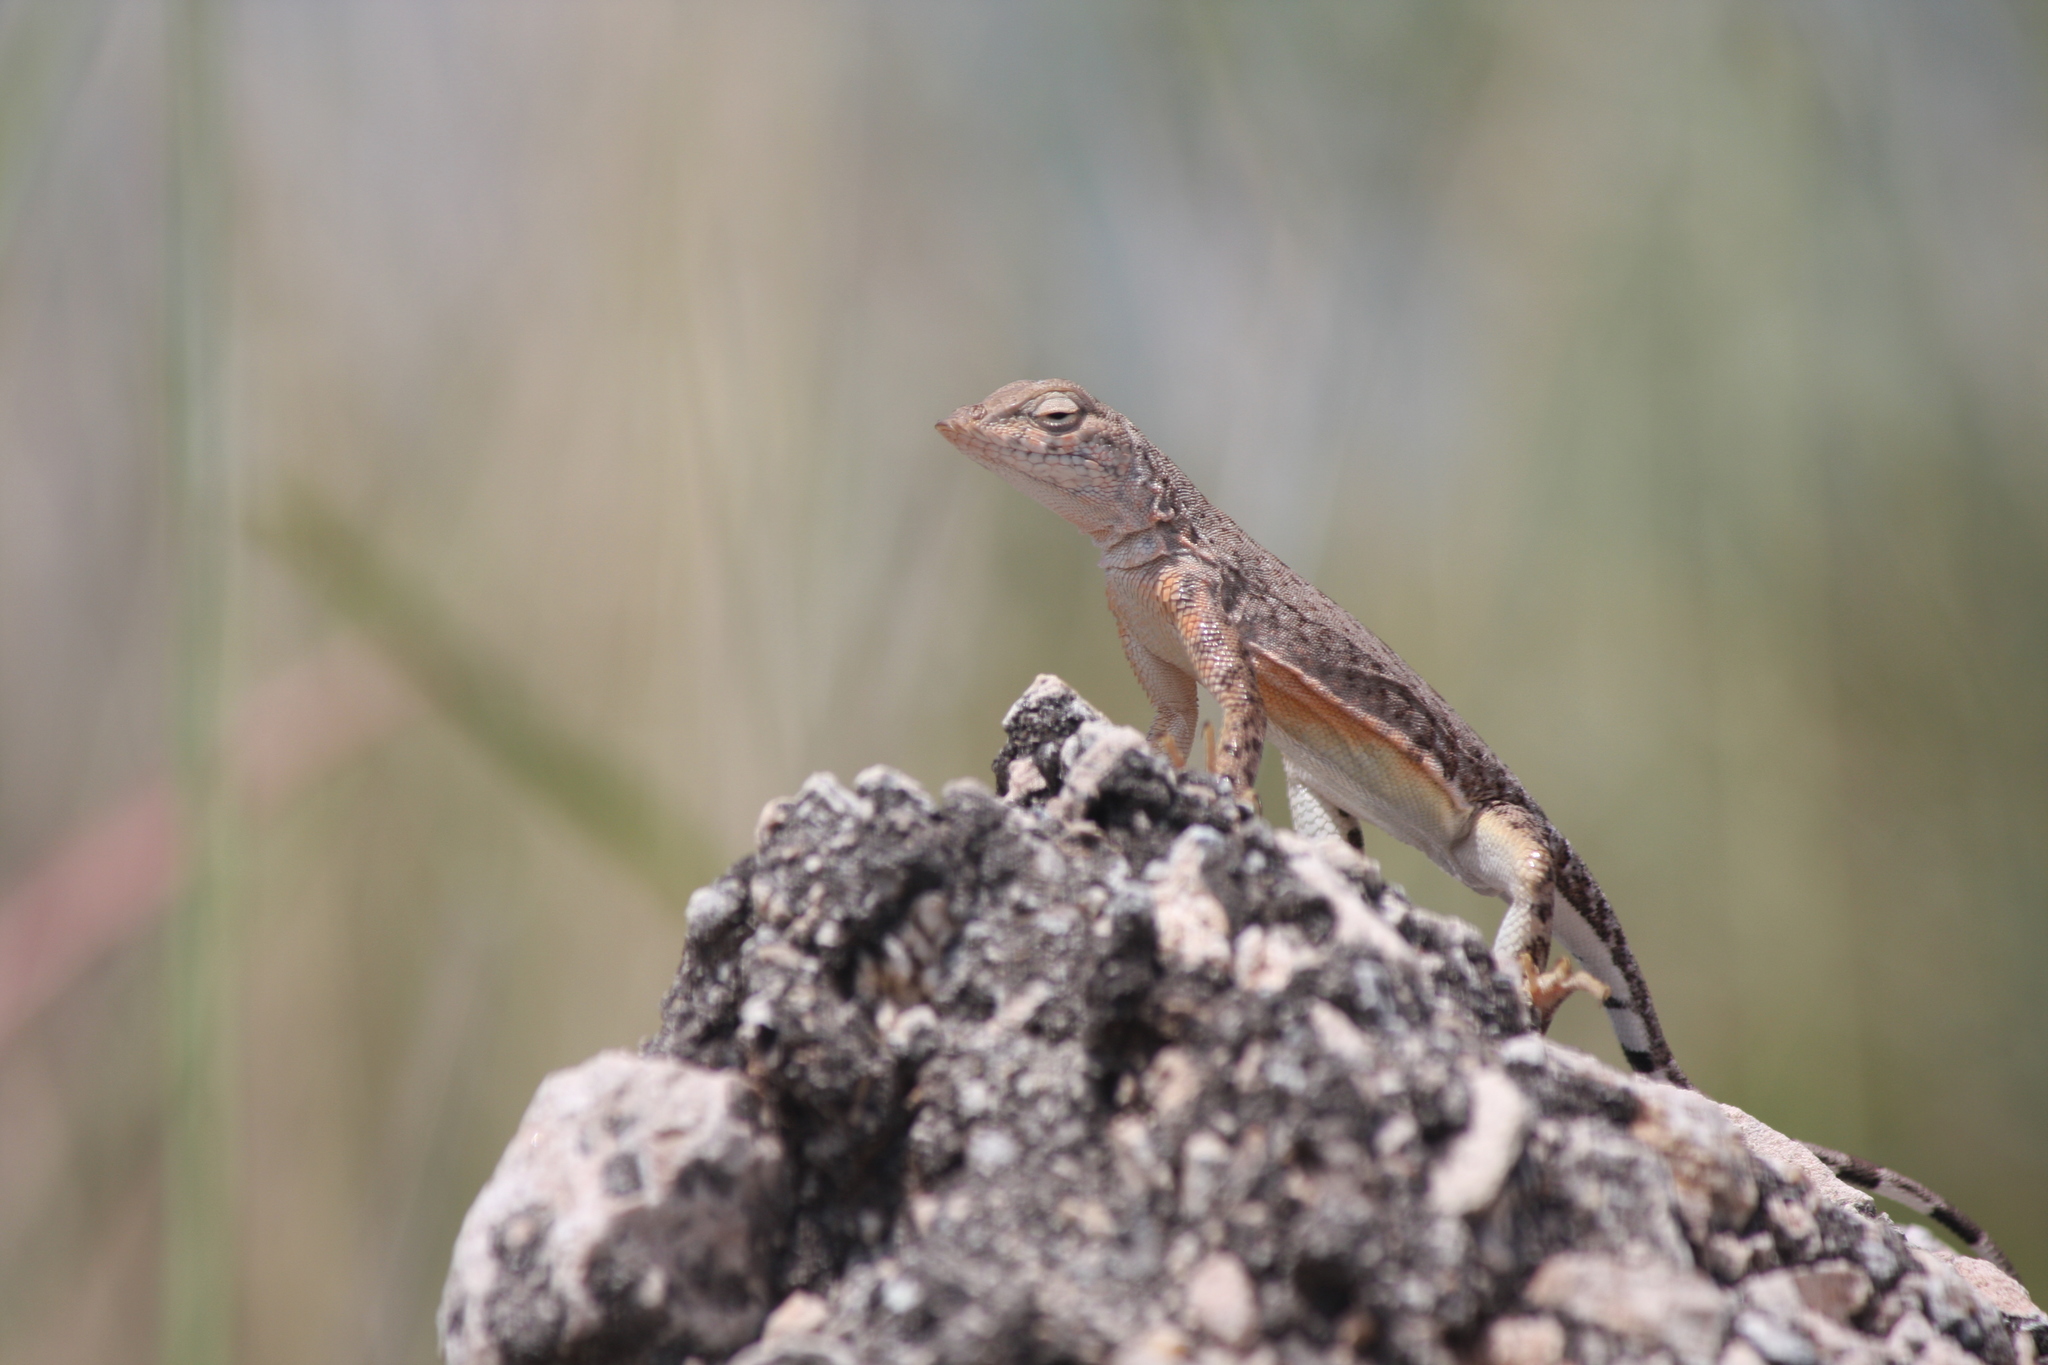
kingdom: Animalia
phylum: Chordata
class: Squamata
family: Phrynosomatidae
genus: Cophosaurus
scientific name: Cophosaurus texanus
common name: Greater earless lizard
